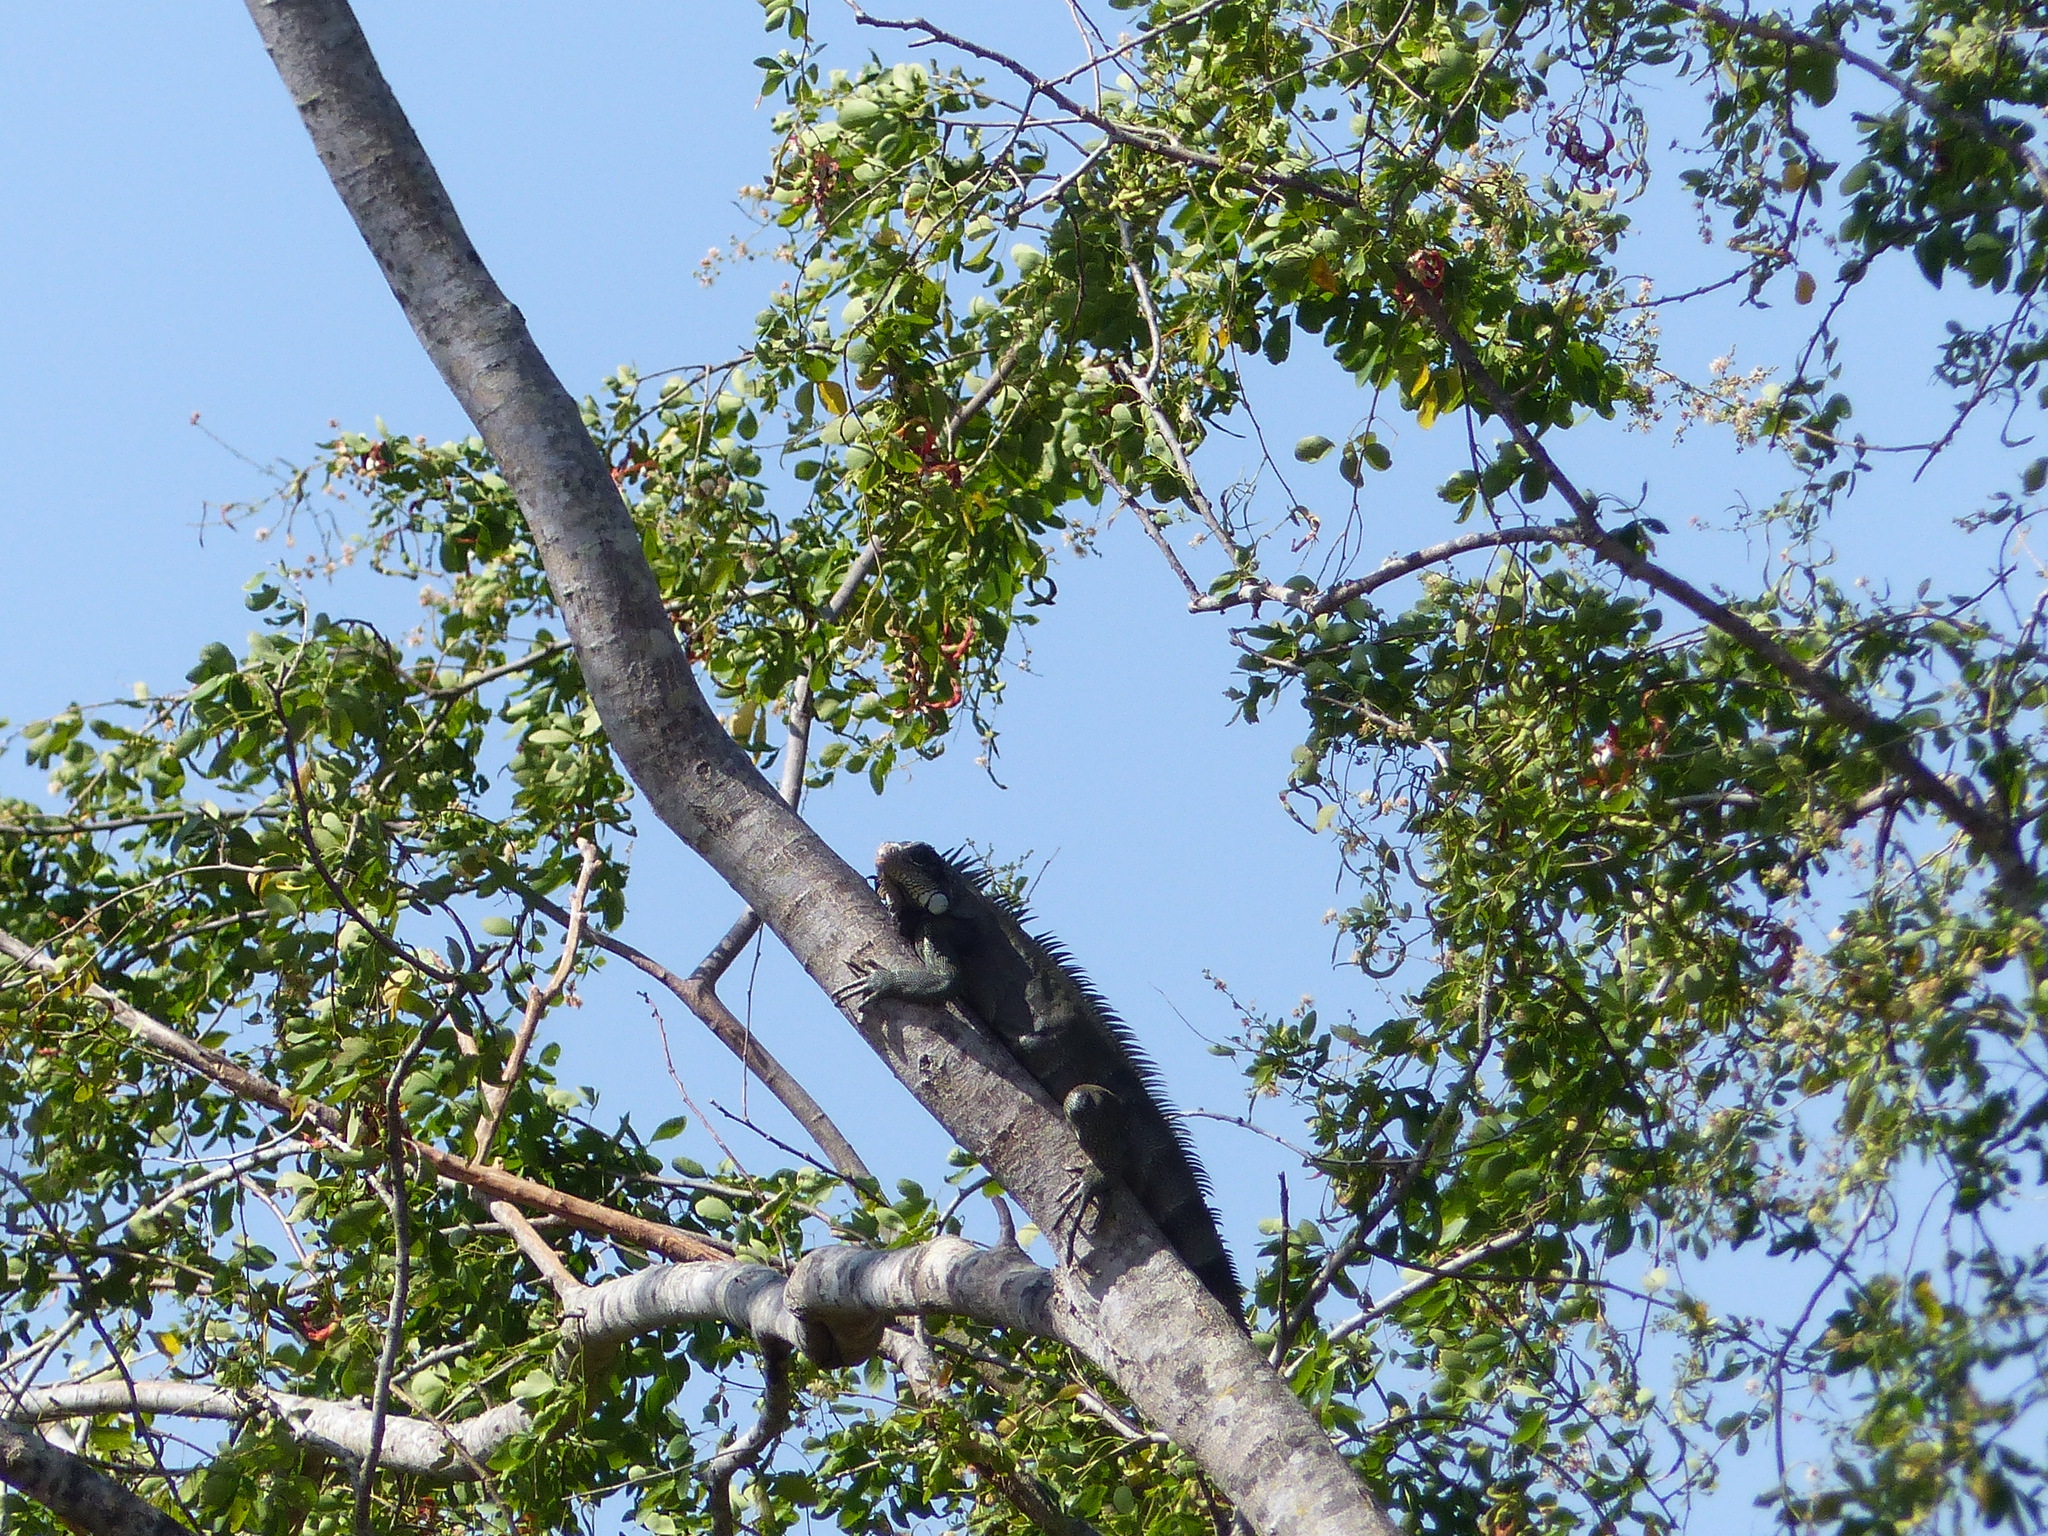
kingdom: Animalia
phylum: Chordata
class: Squamata
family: Iguanidae
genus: Iguana
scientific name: Iguana iguana
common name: Green iguana
